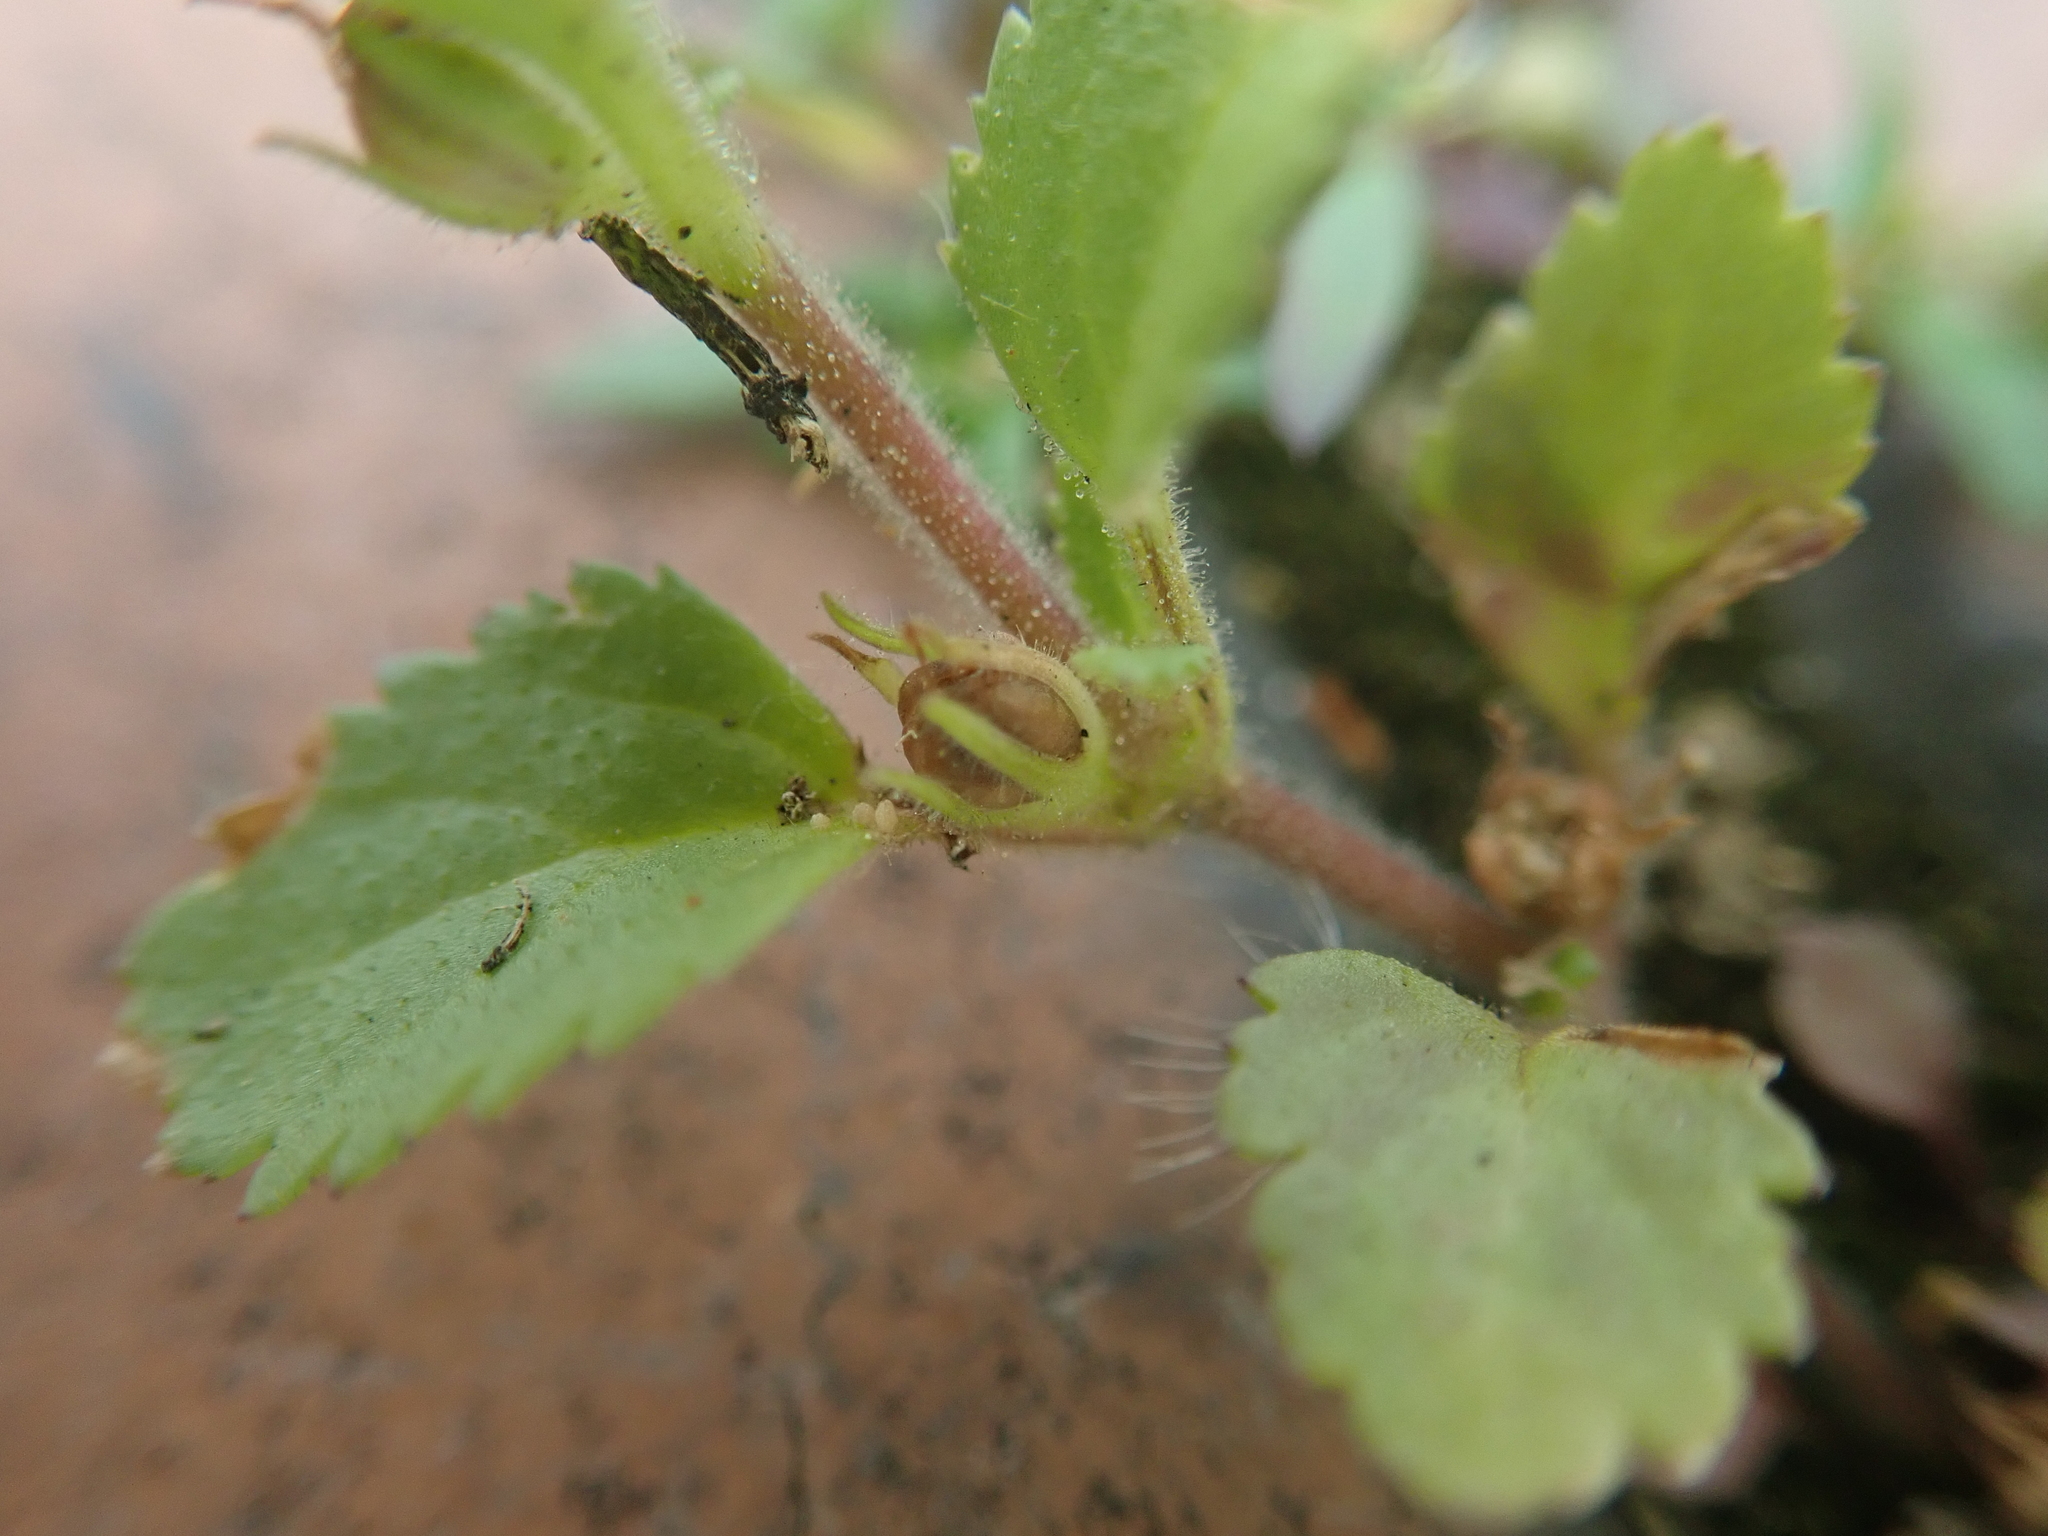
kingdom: Plantae
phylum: Tracheophyta
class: Magnoliopsida
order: Lamiales
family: Plantaginaceae
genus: Stemodia
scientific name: Stemodia verticillata
